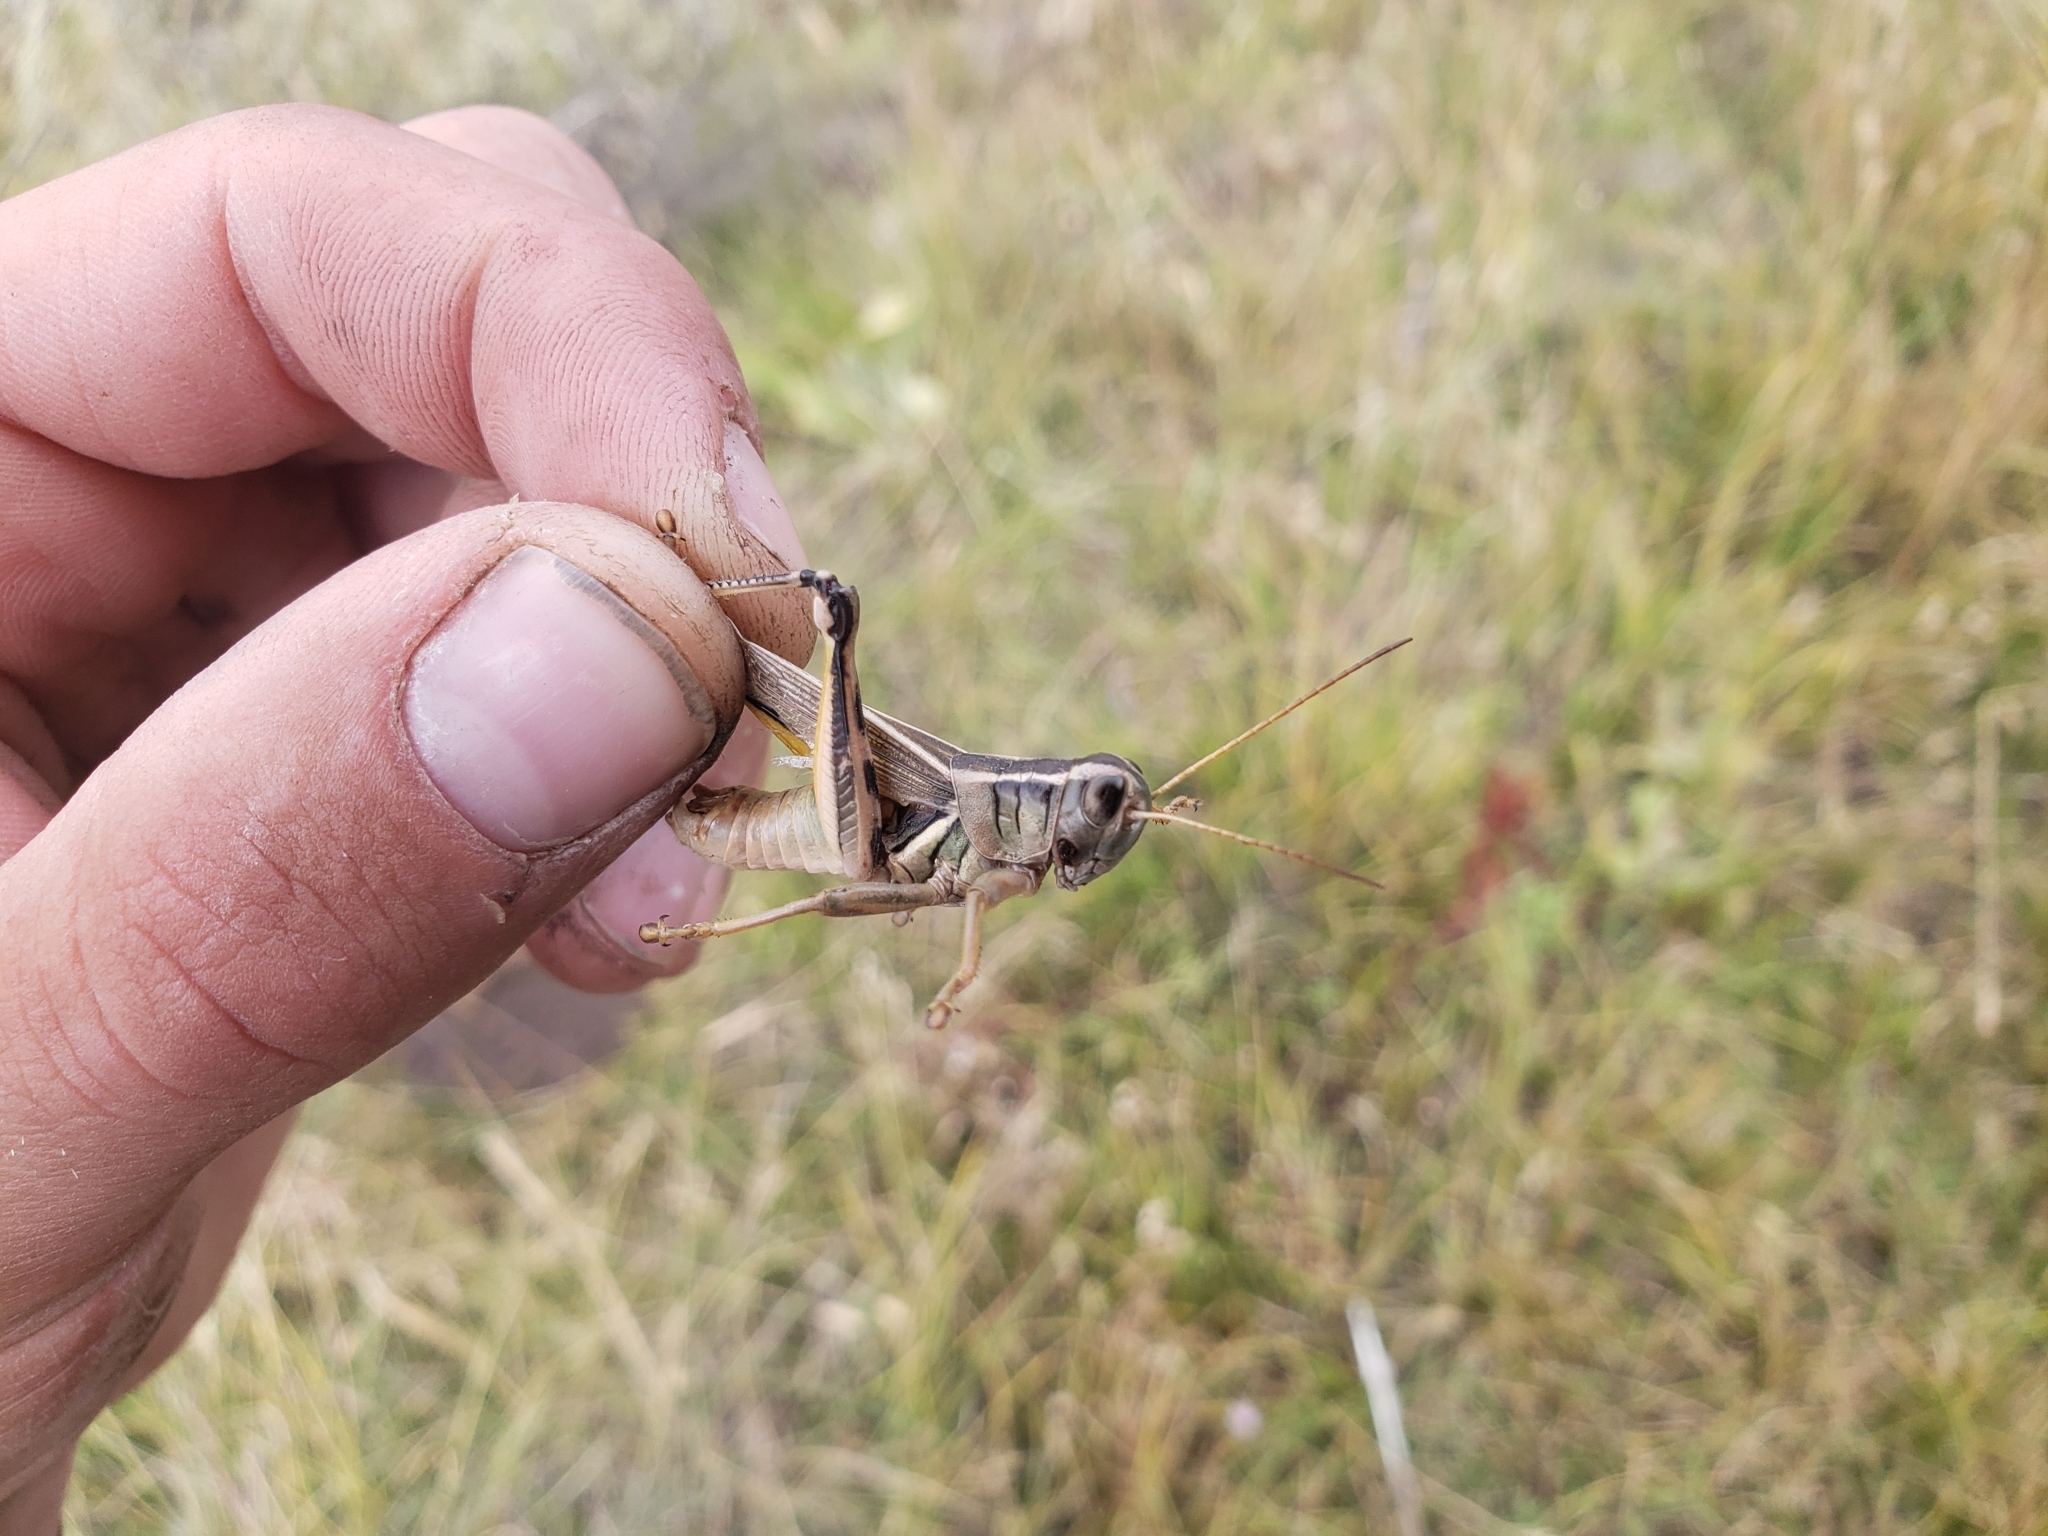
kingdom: Animalia
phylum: Arthropoda
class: Insecta
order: Orthoptera
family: Acrididae
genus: Melanoplus
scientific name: Melanoplus bivittatus
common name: Two-striped grasshopper
